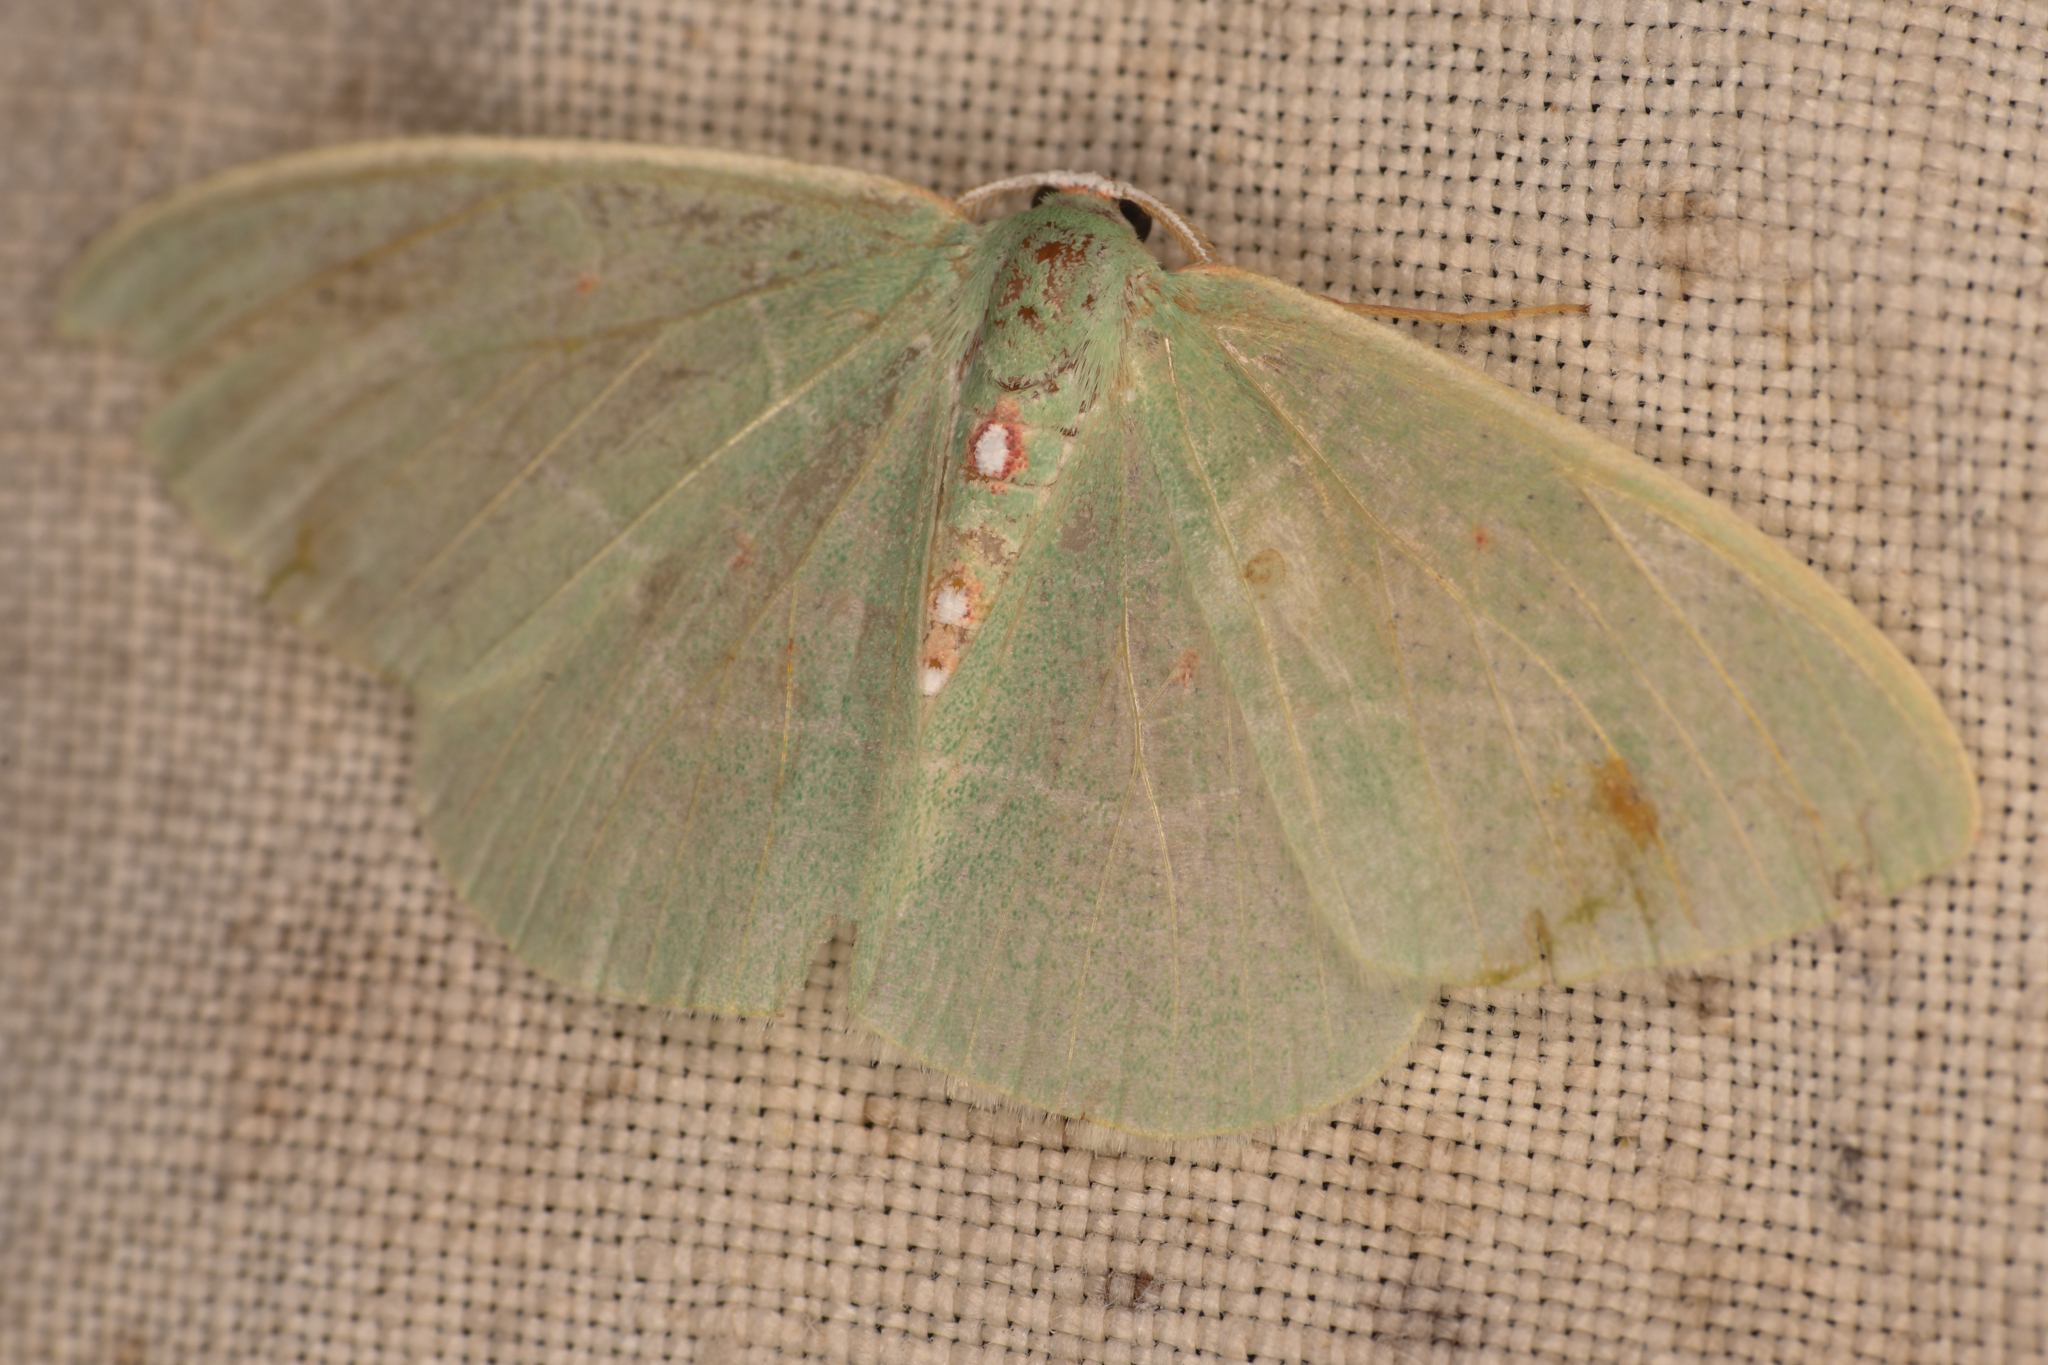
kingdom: Animalia
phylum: Arthropoda
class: Insecta
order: Lepidoptera
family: Geometridae
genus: Nemoria
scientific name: Nemoria darwiniata
